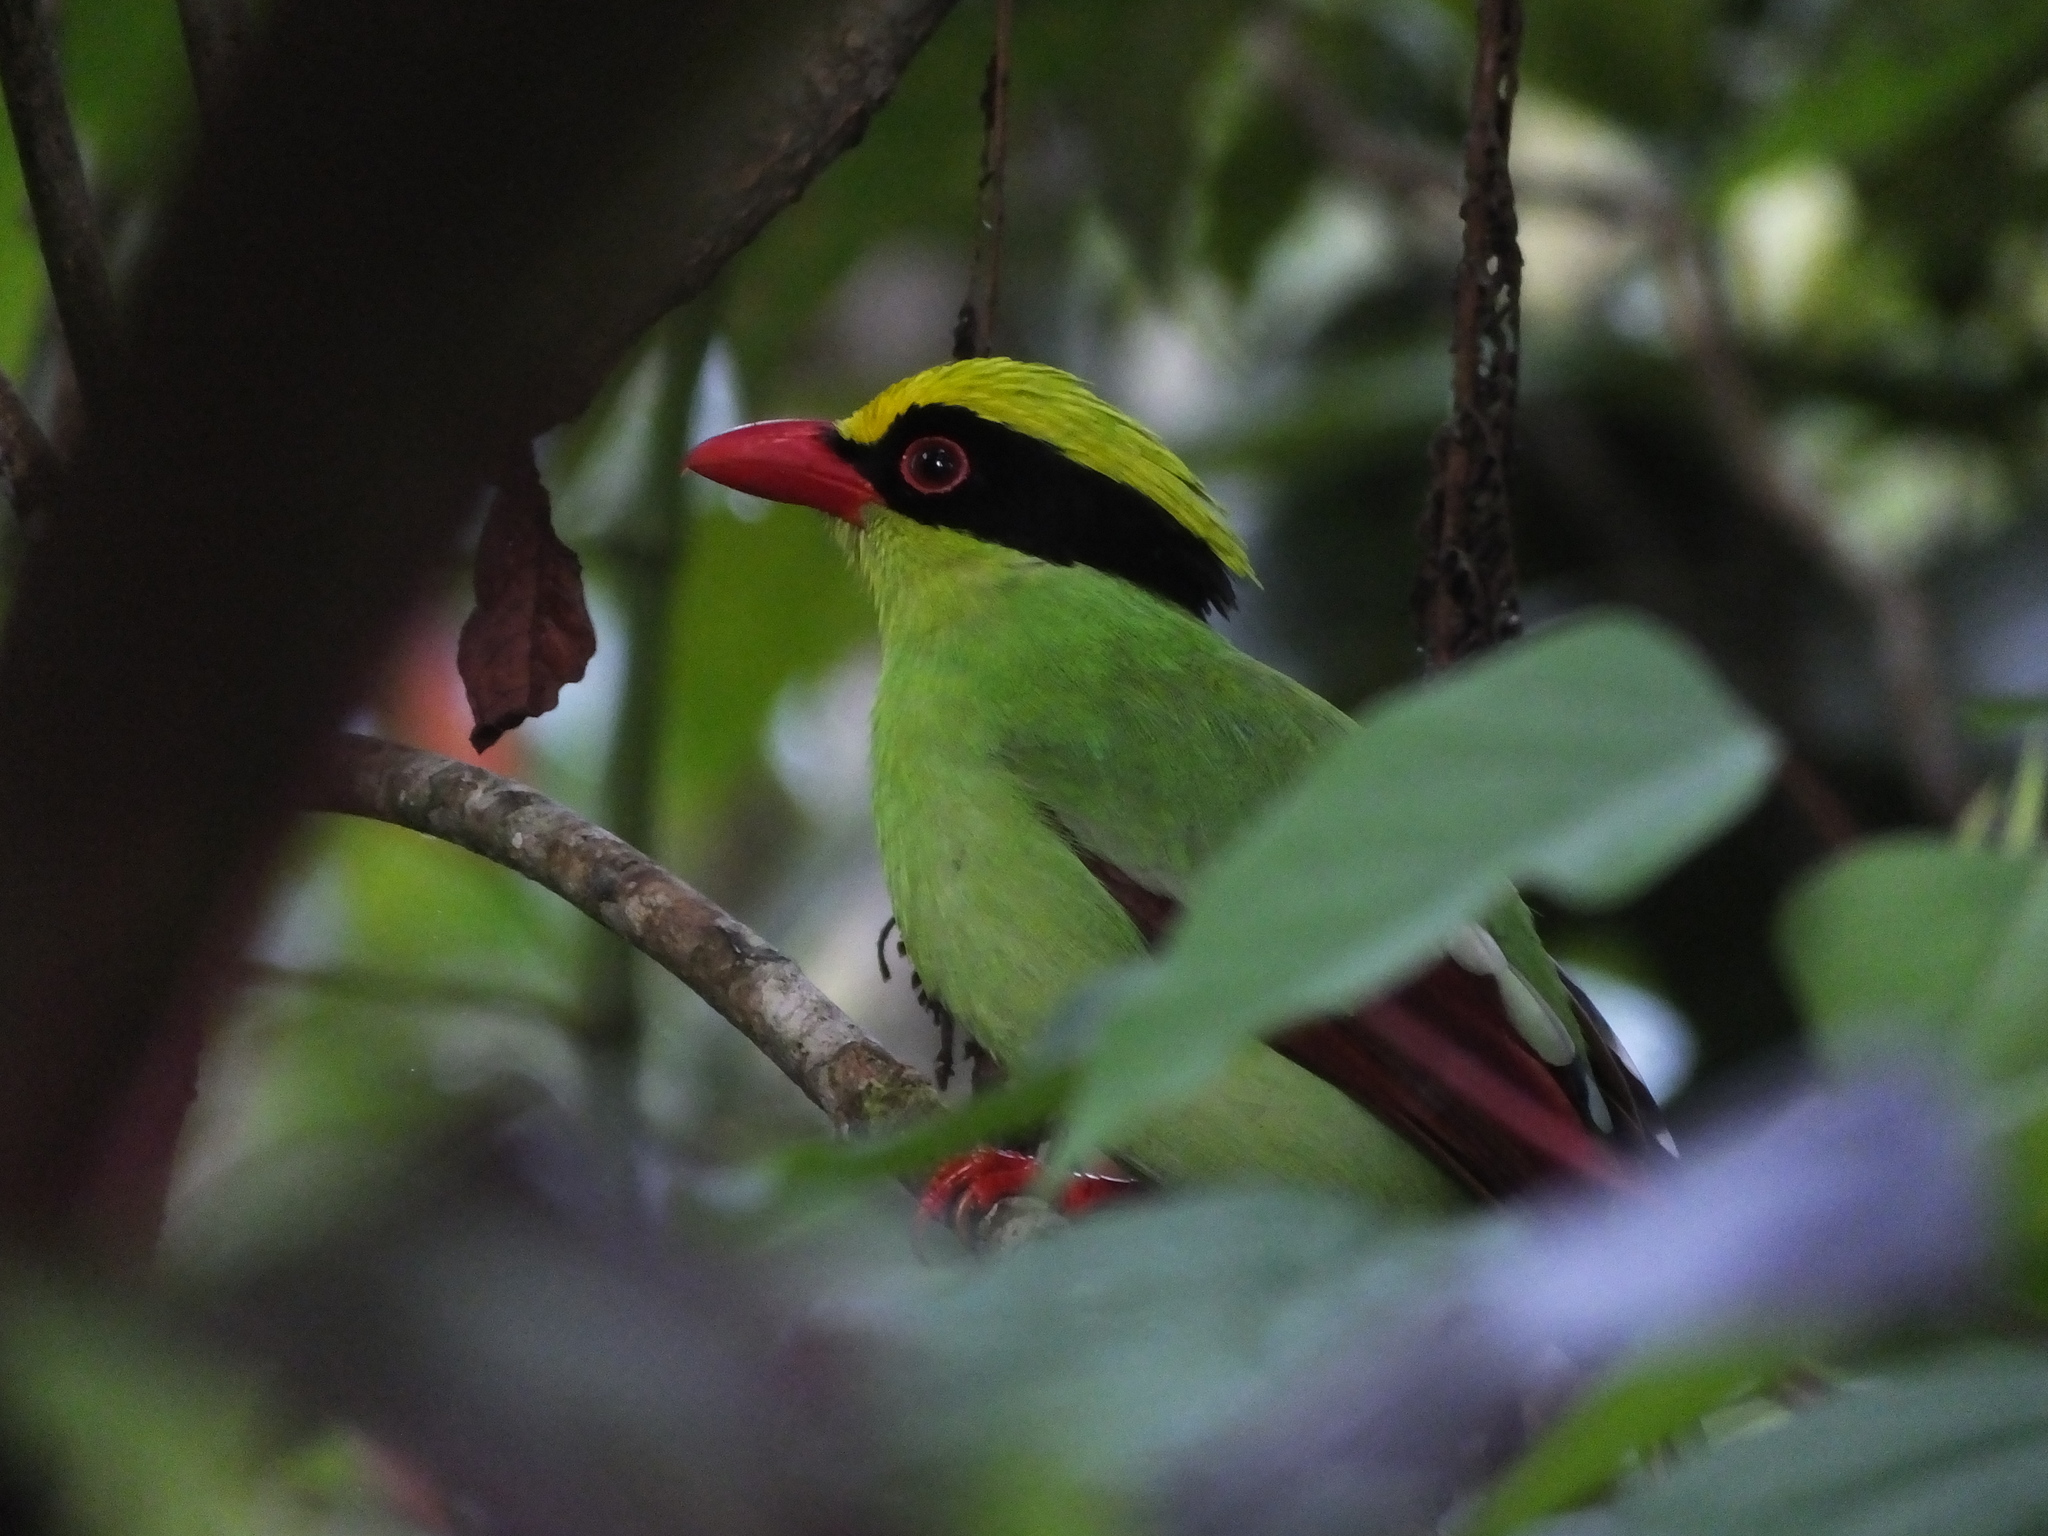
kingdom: Animalia
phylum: Chordata
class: Aves
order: Passeriformes
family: Corvidae
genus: Cissa
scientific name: Cissa chinensis
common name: Common green magpie
